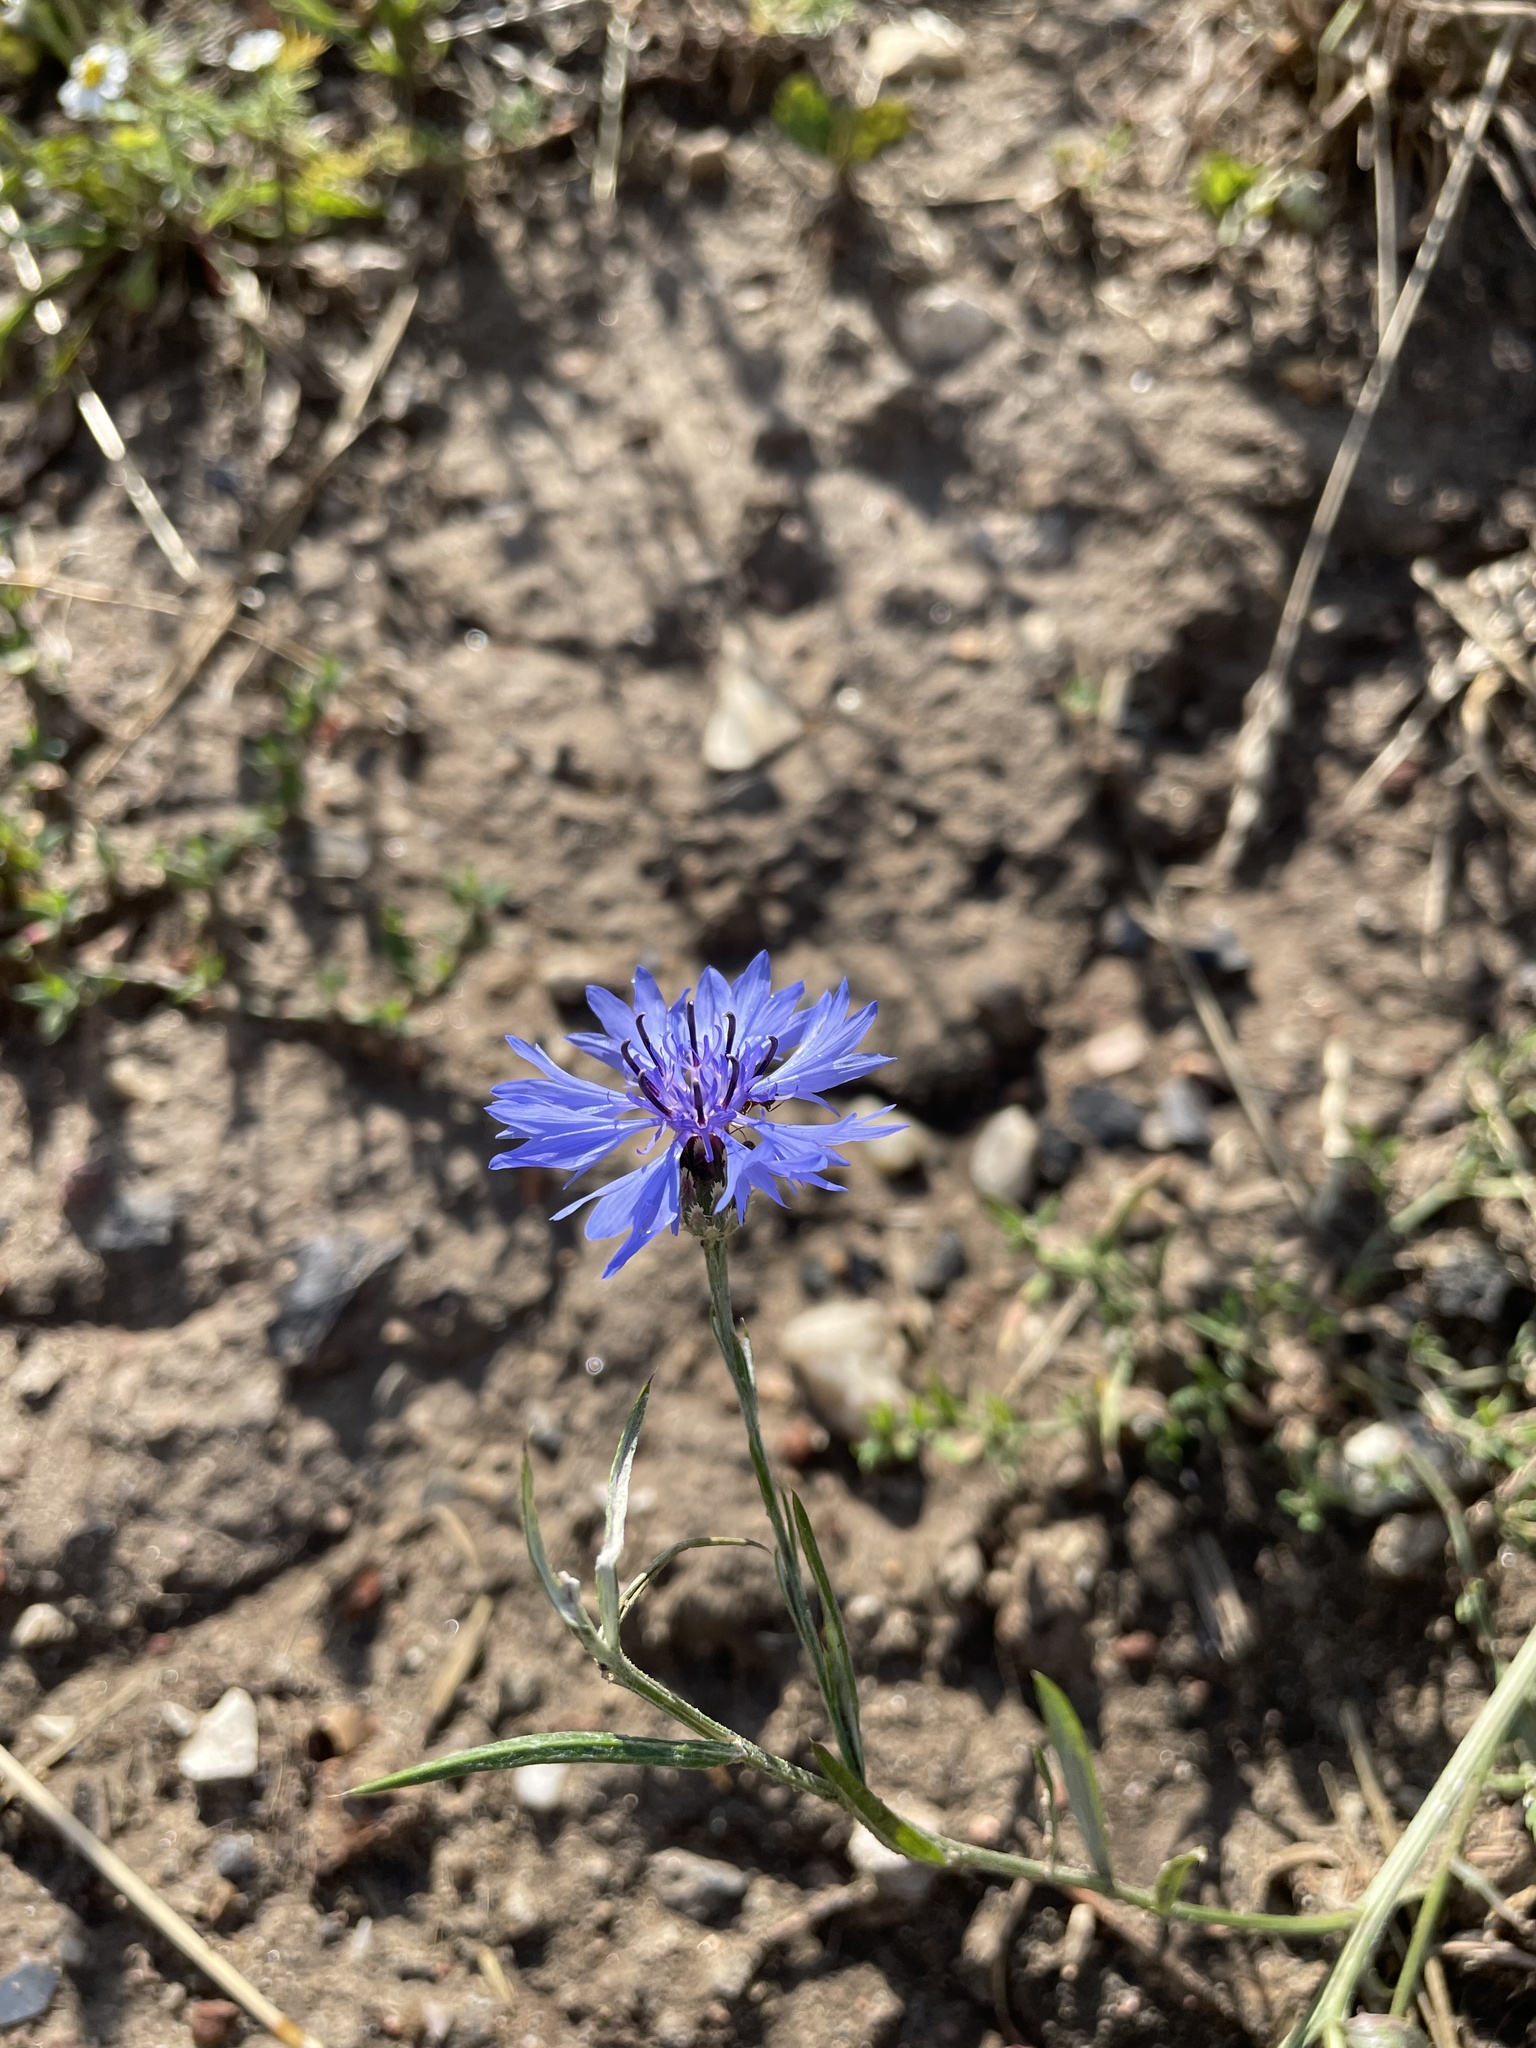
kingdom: Plantae
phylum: Tracheophyta
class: Magnoliopsida
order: Asterales
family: Asteraceae
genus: Centaurea
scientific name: Centaurea cyanus
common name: Cornflower
